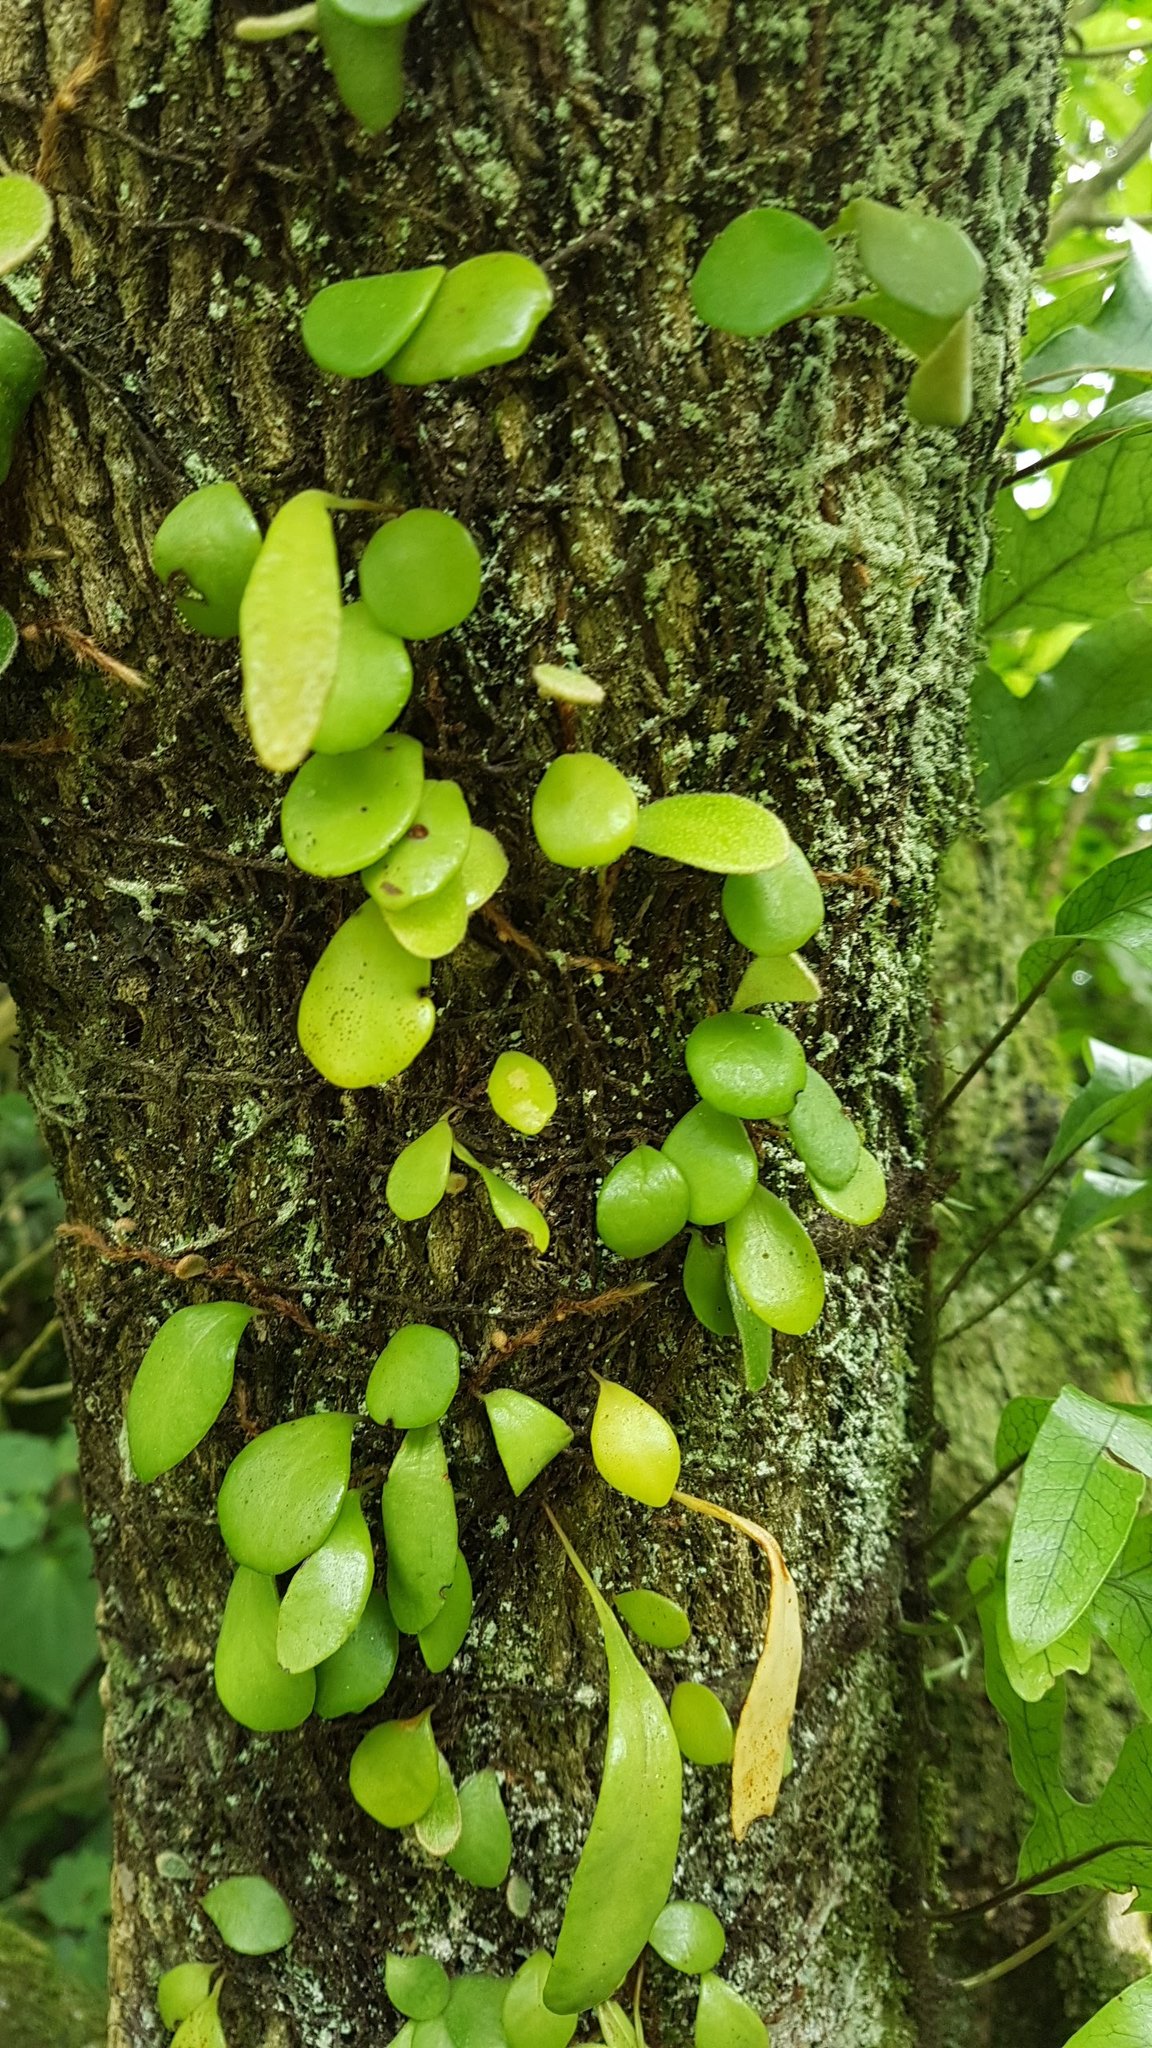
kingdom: Plantae
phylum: Tracheophyta
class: Polypodiopsida
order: Polypodiales
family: Dryopteridaceae
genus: Rumohra
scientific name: Rumohra adiantiformis
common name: Leather fern
